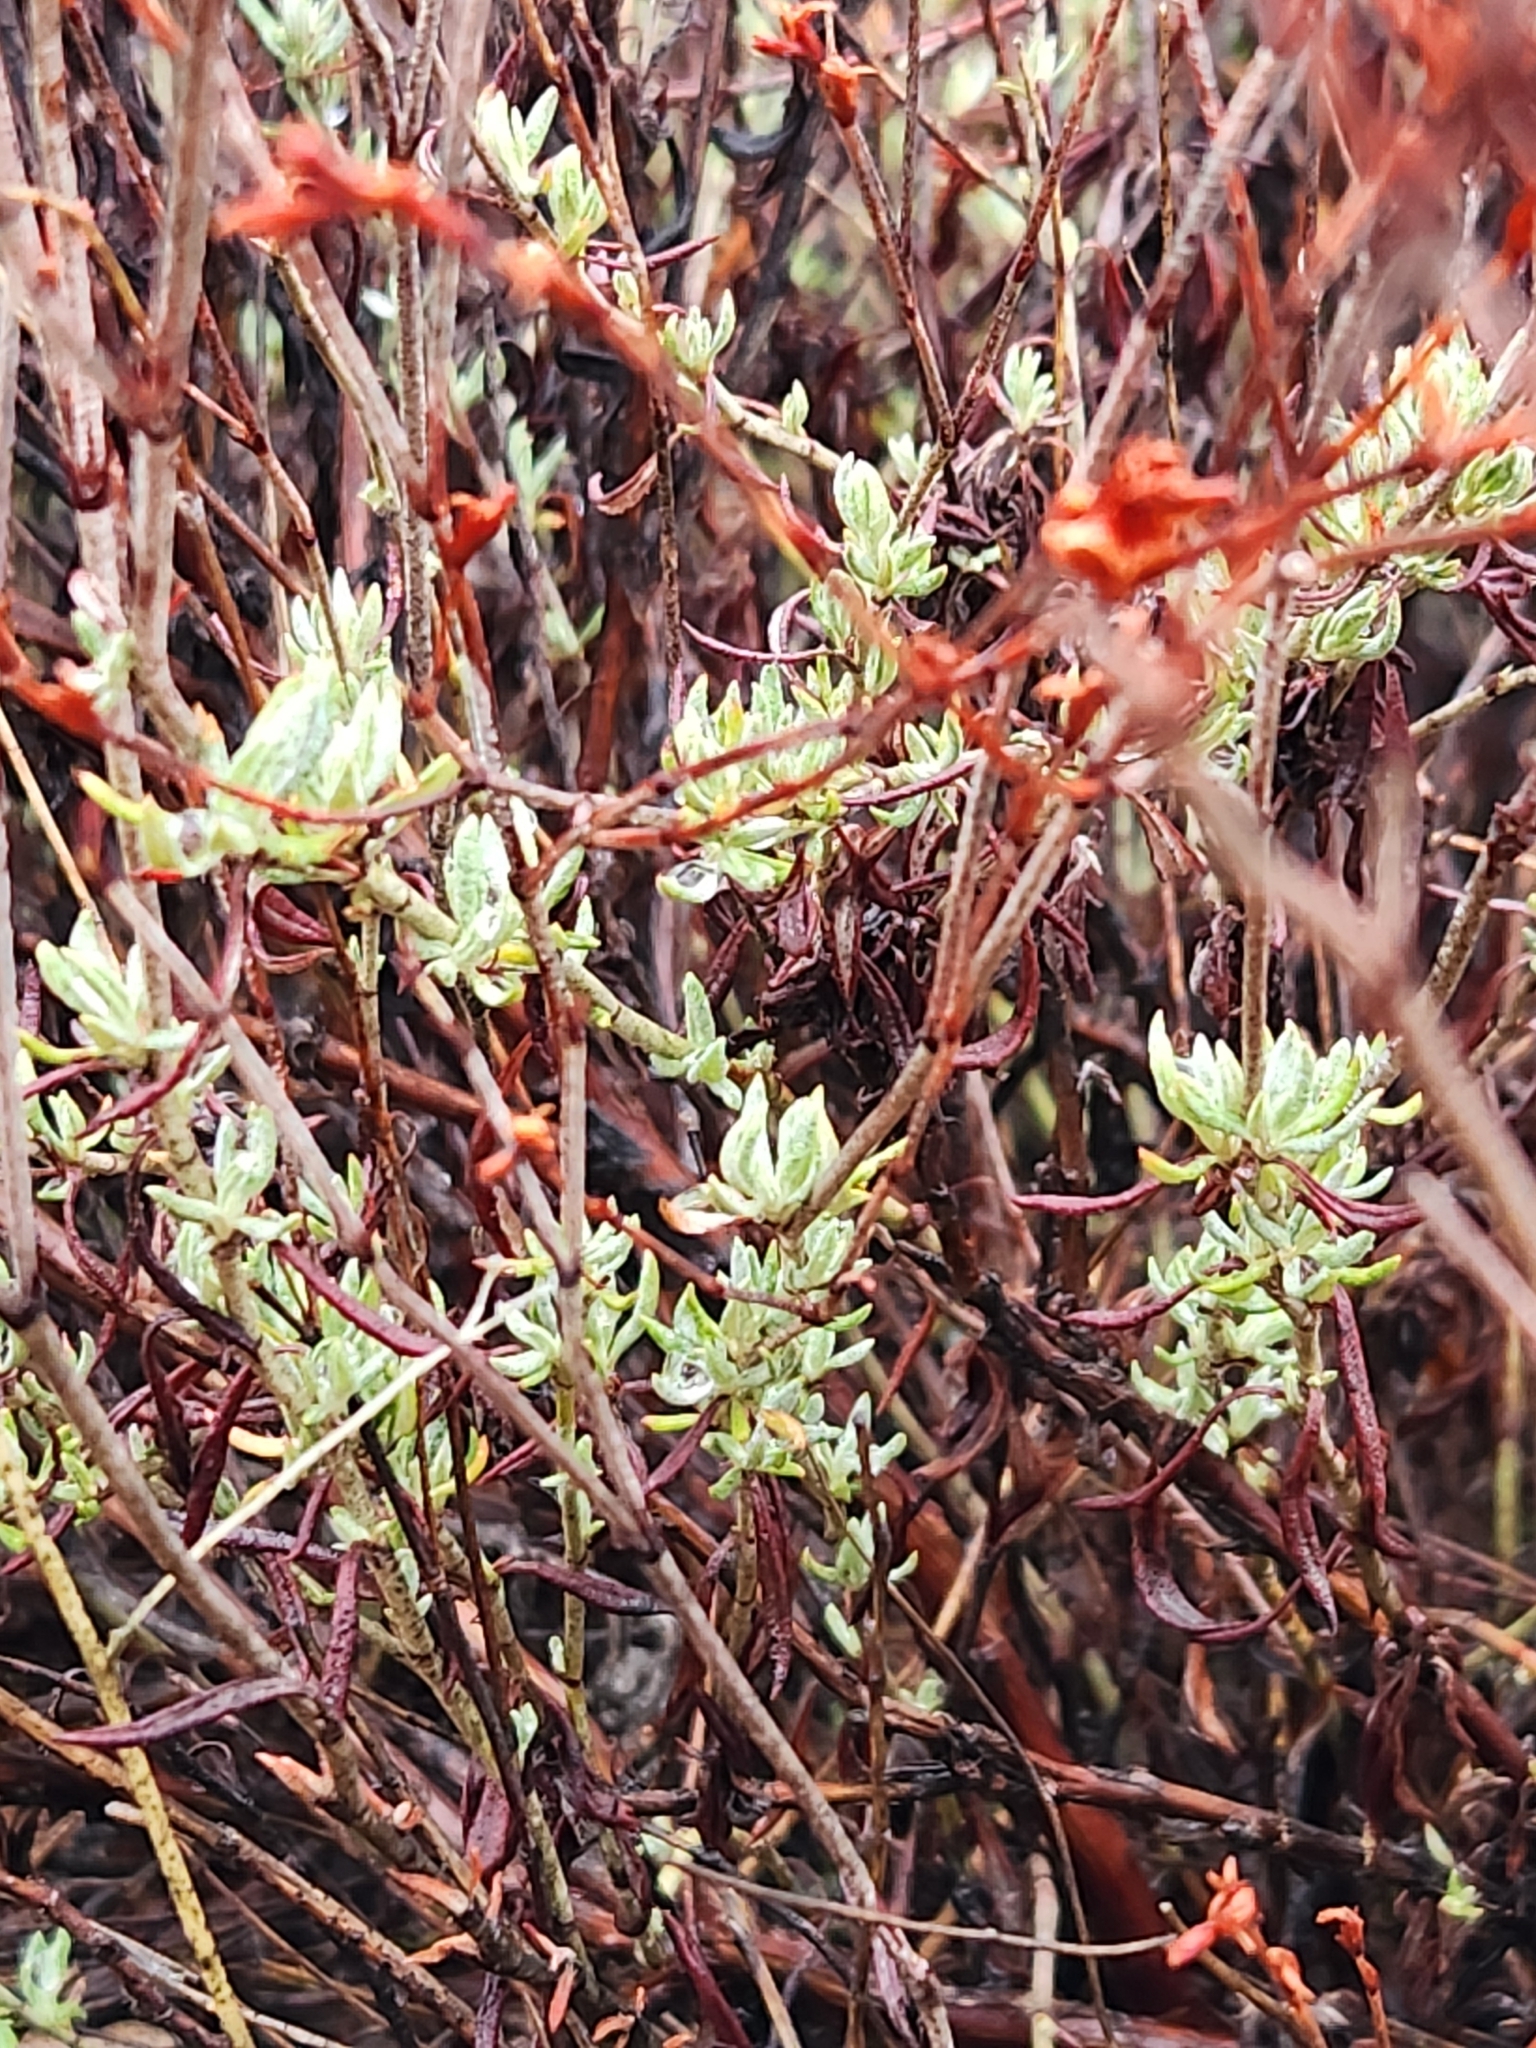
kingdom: Plantae
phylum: Tracheophyta
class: Magnoliopsida
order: Caryophyllales
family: Polygonaceae
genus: Eriogonum
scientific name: Eriogonum wrightii
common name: Bastard-sage
